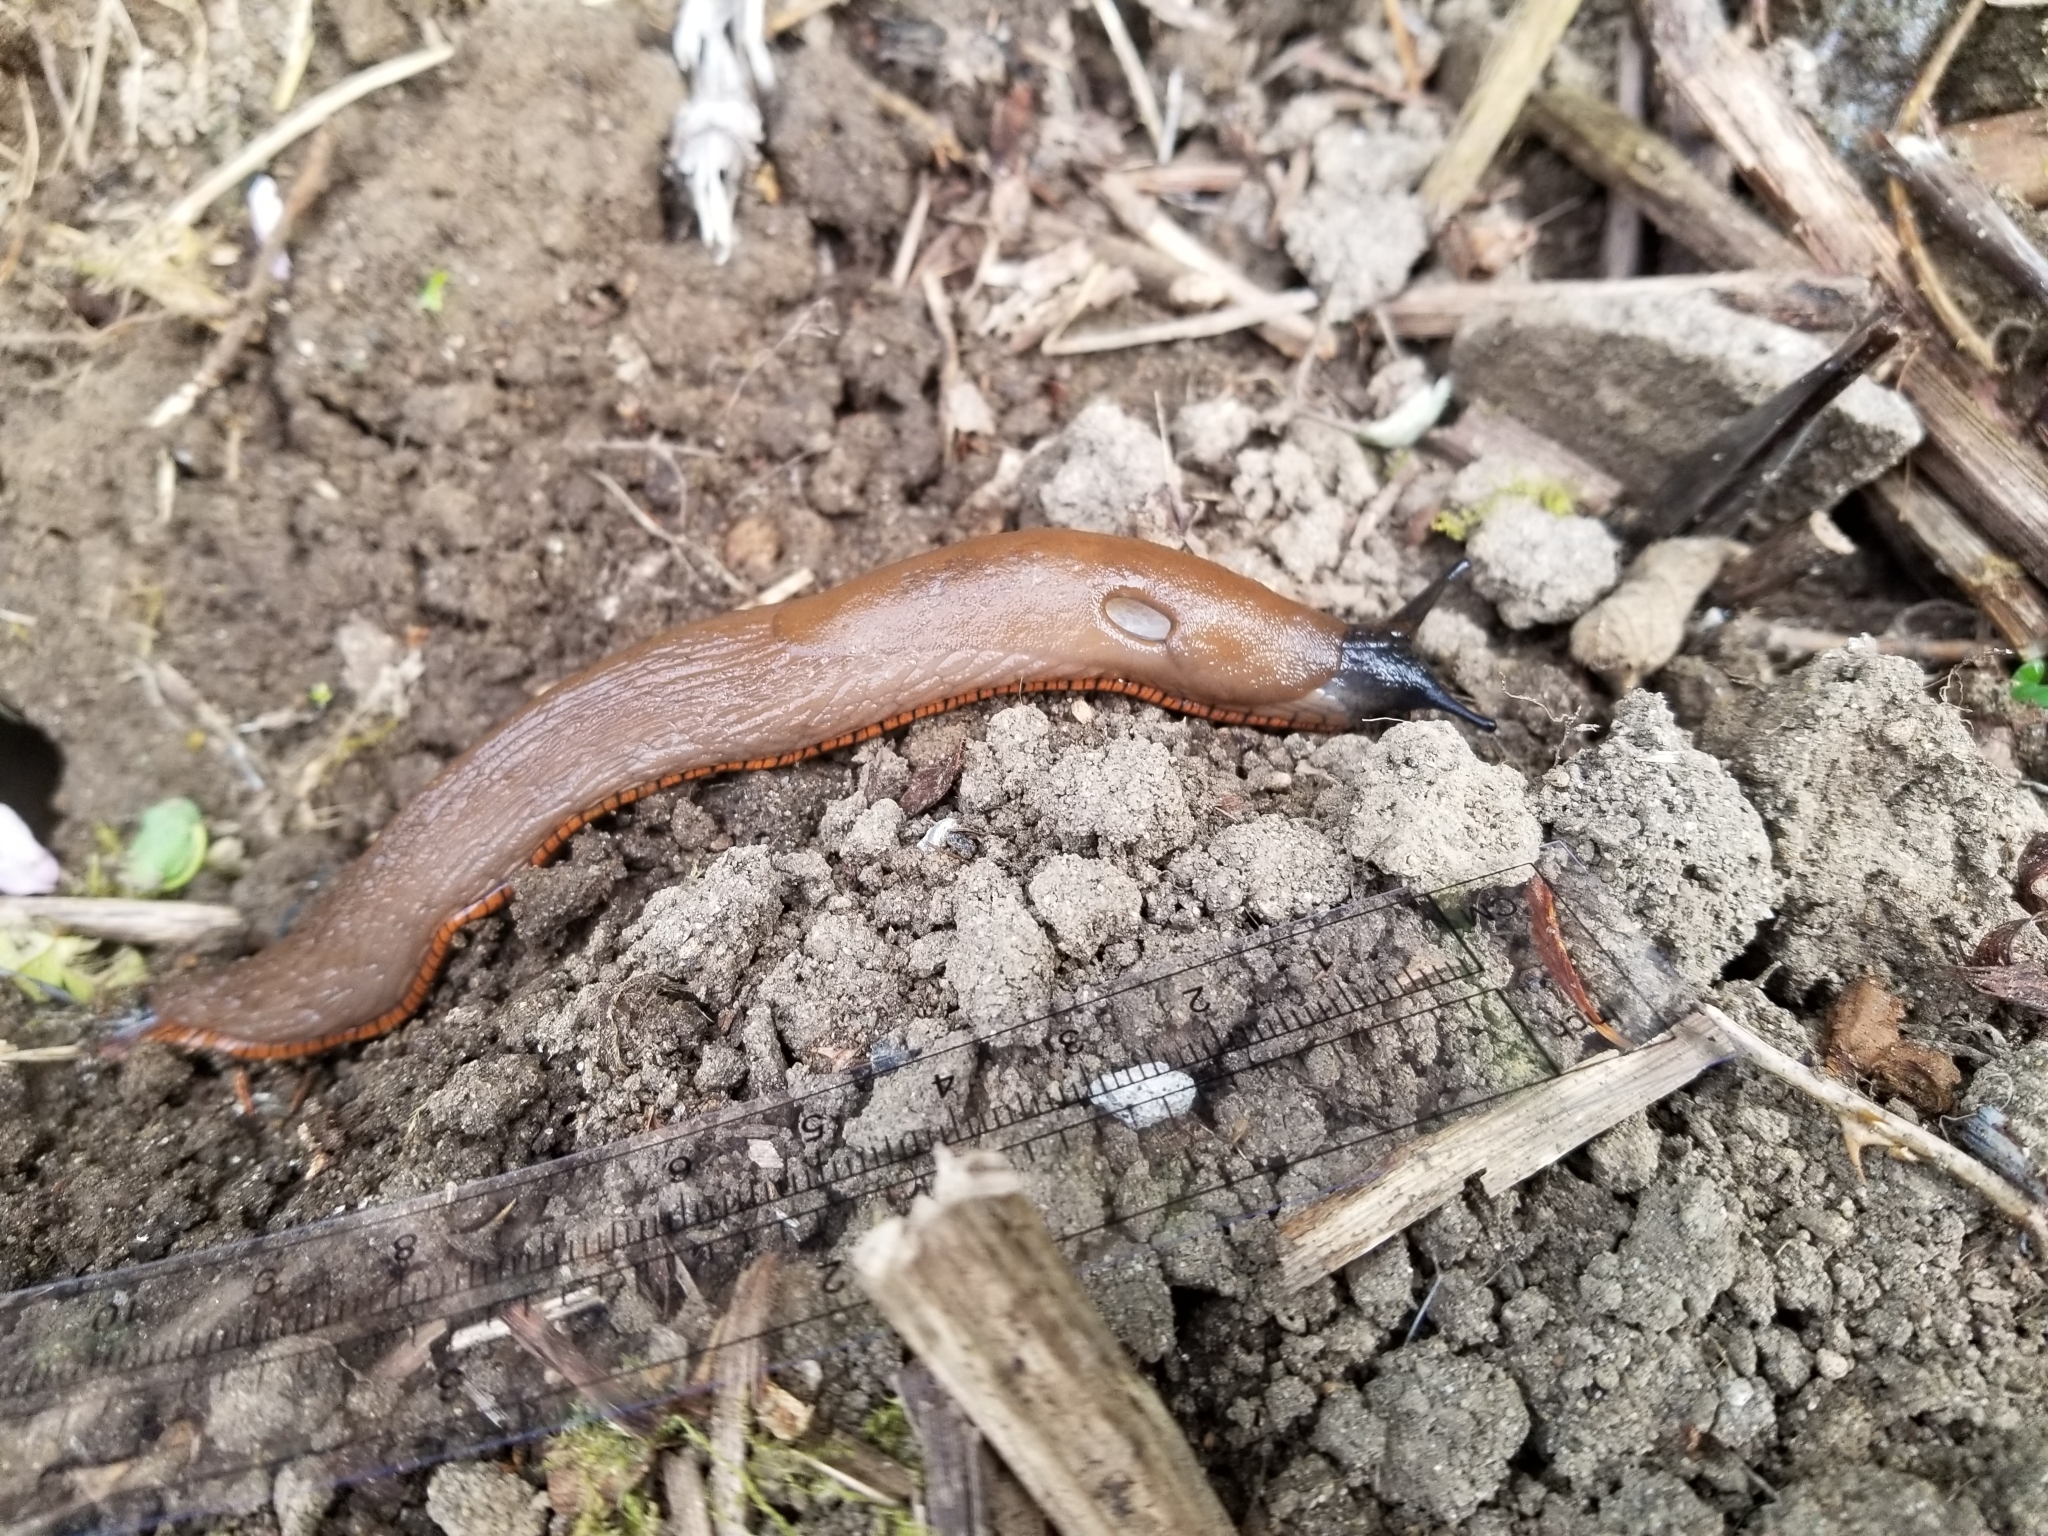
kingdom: Animalia
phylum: Mollusca
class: Gastropoda
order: Stylommatophora
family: Arionidae
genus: Arion
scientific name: Arion
